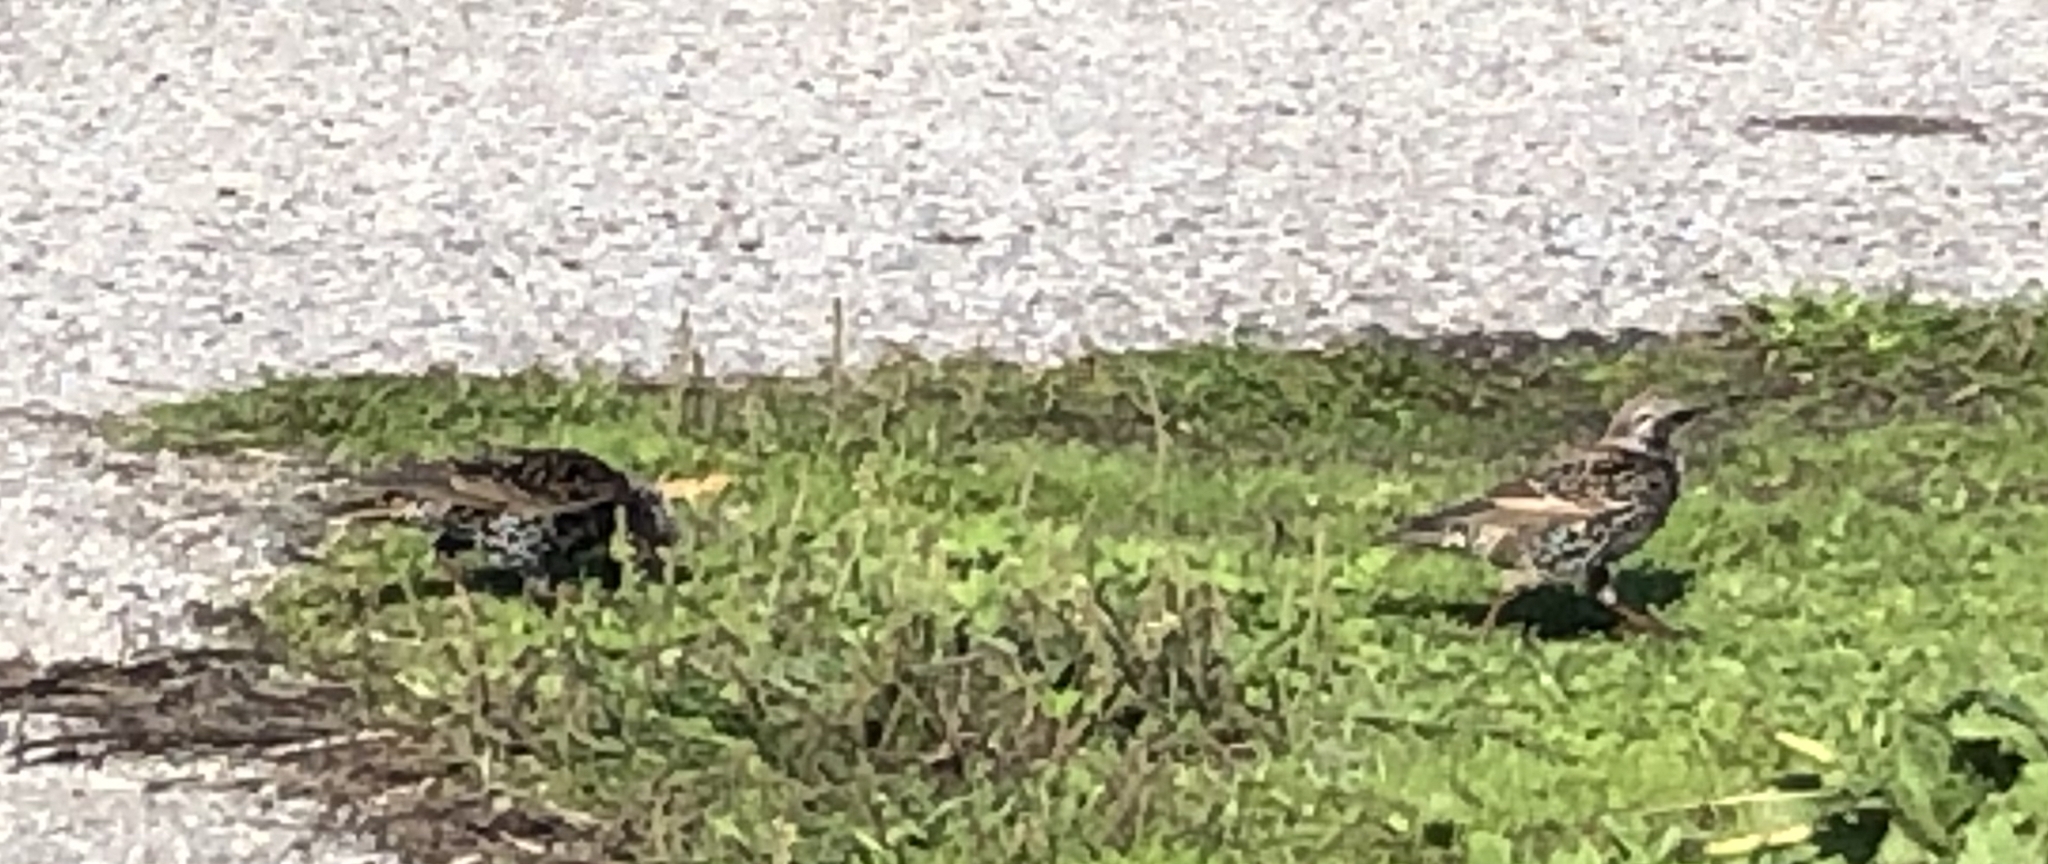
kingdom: Animalia
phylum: Chordata
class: Aves
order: Passeriformes
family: Sturnidae
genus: Sturnus
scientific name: Sturnus vulgaris
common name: Common starling
